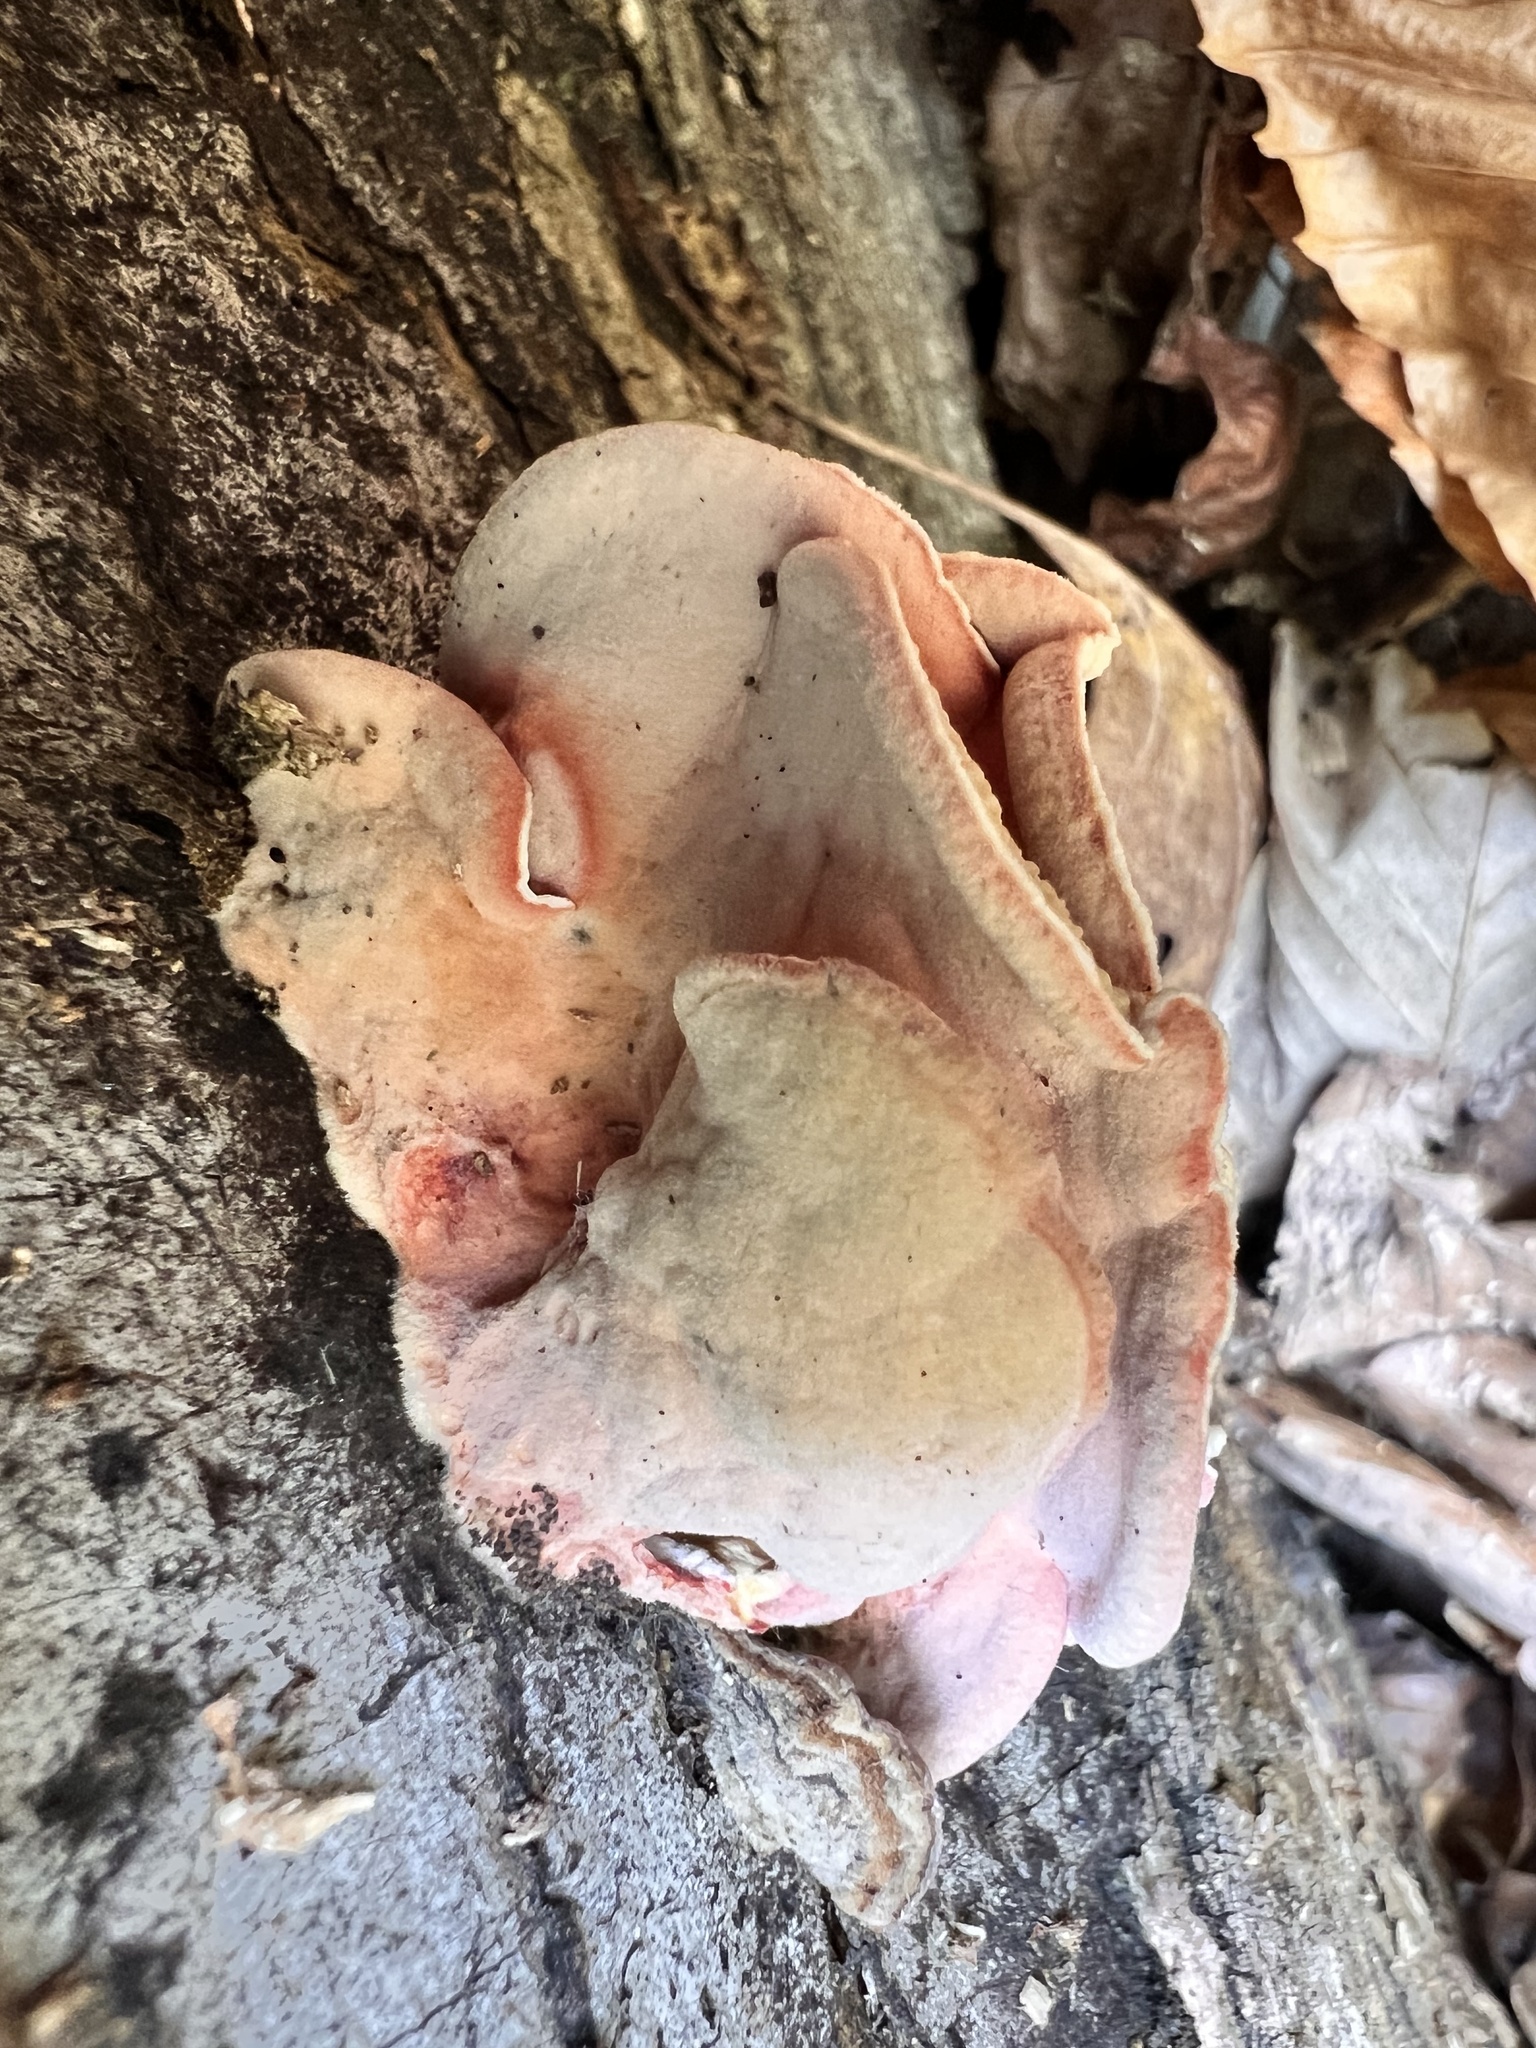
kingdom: Fungi
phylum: Basidiomycota
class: Agaricomycetes
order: Polyporales
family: Irpicaceae
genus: Byssomerulius
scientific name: Byssomerulius incarnatus
